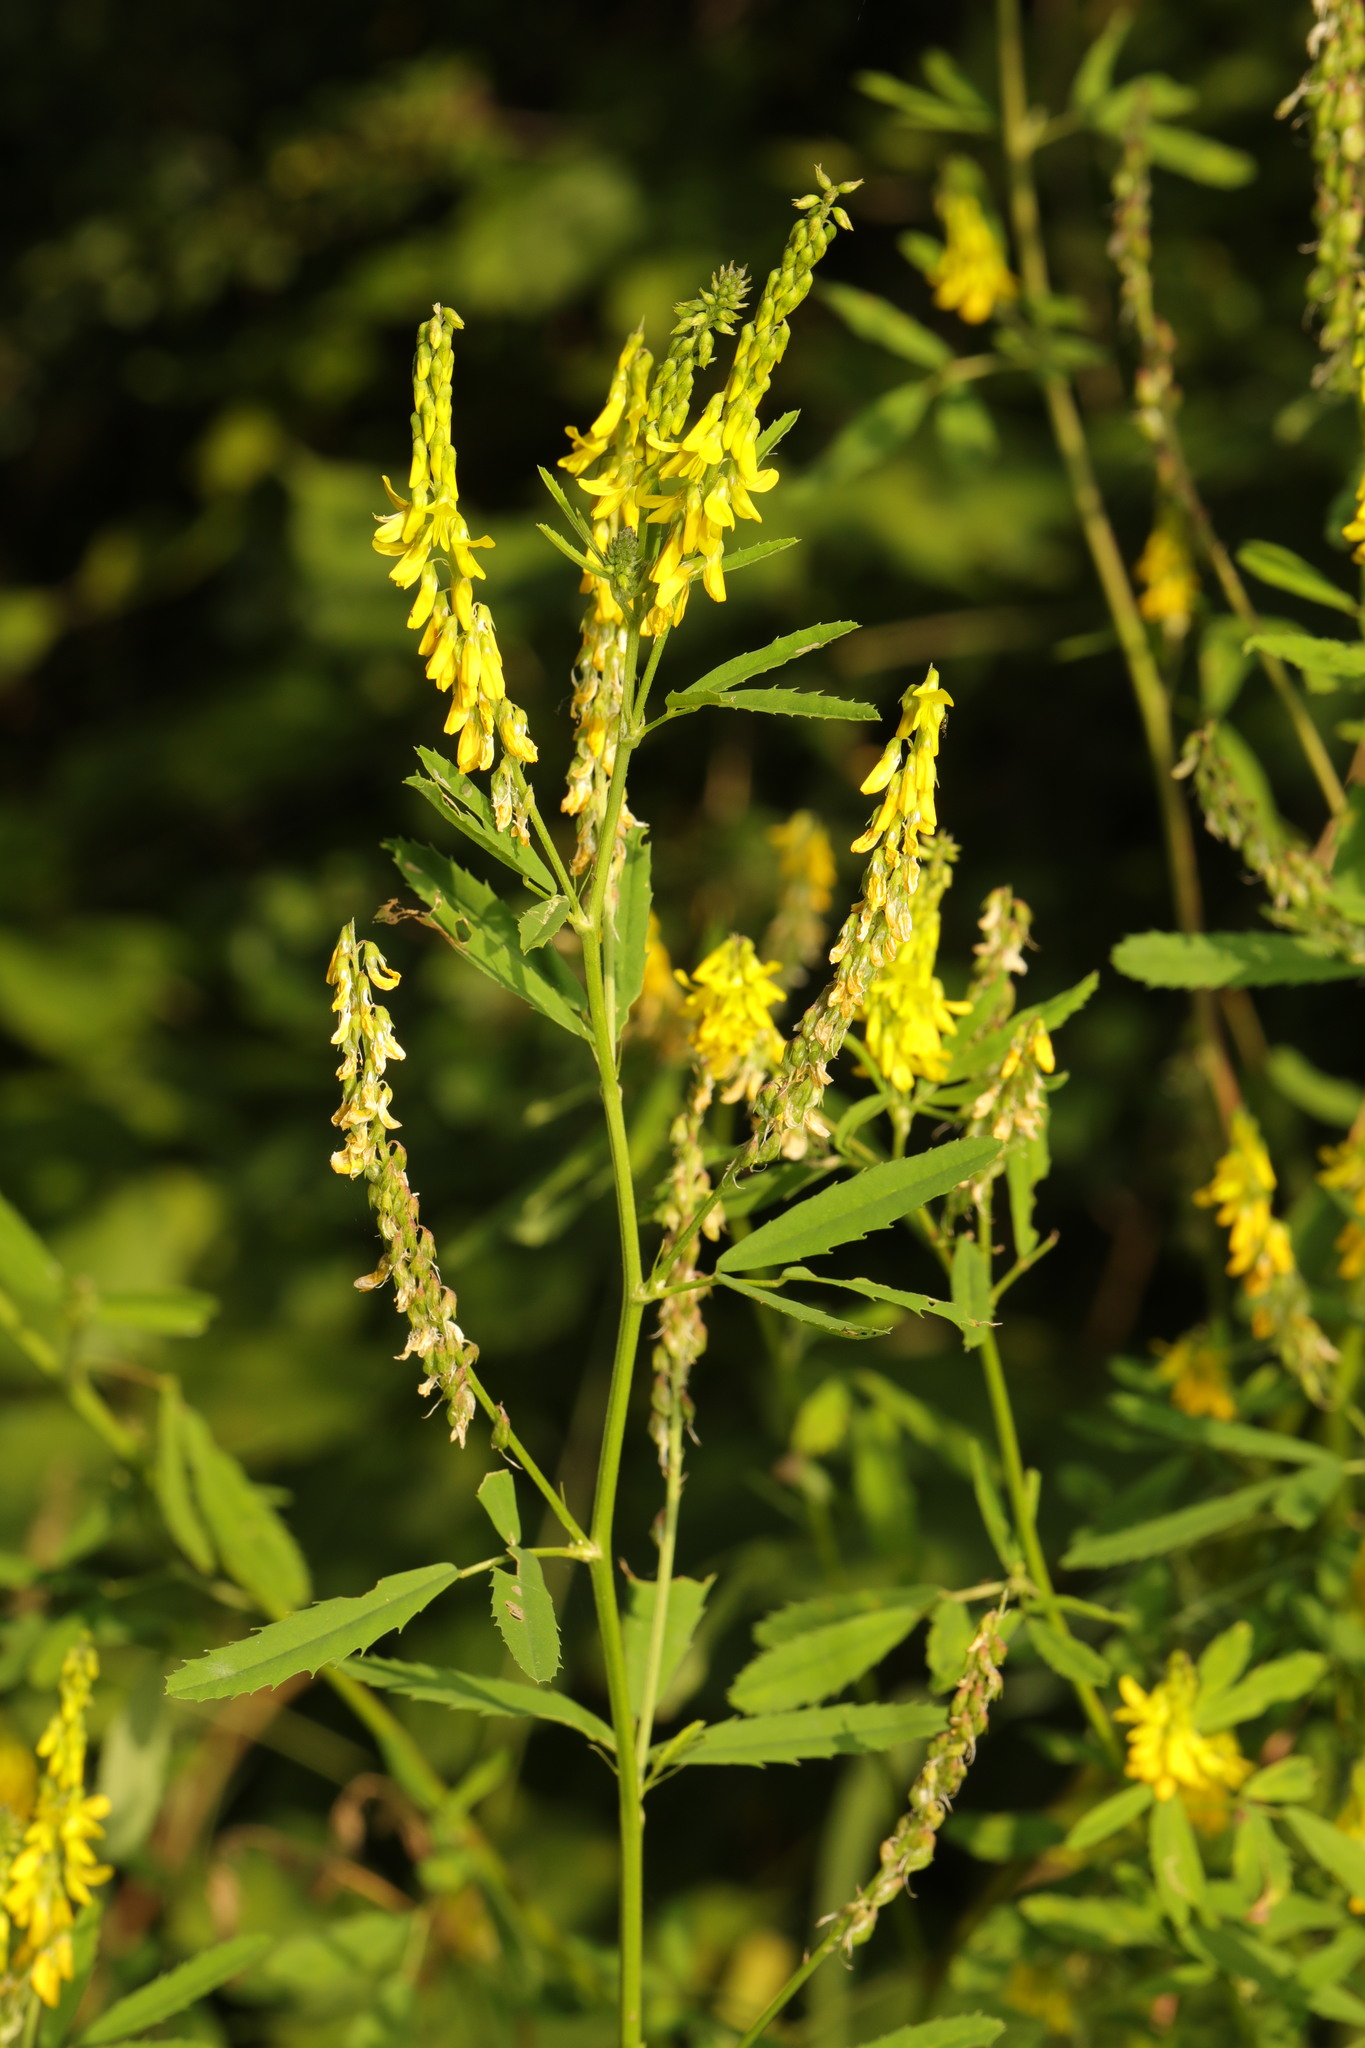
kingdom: Plantae
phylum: Tracheophyta
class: Magnoliopsida
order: Fabales
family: Fabaceae
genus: Melilotus
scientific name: Melilotus officinalis
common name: Sweetclover
